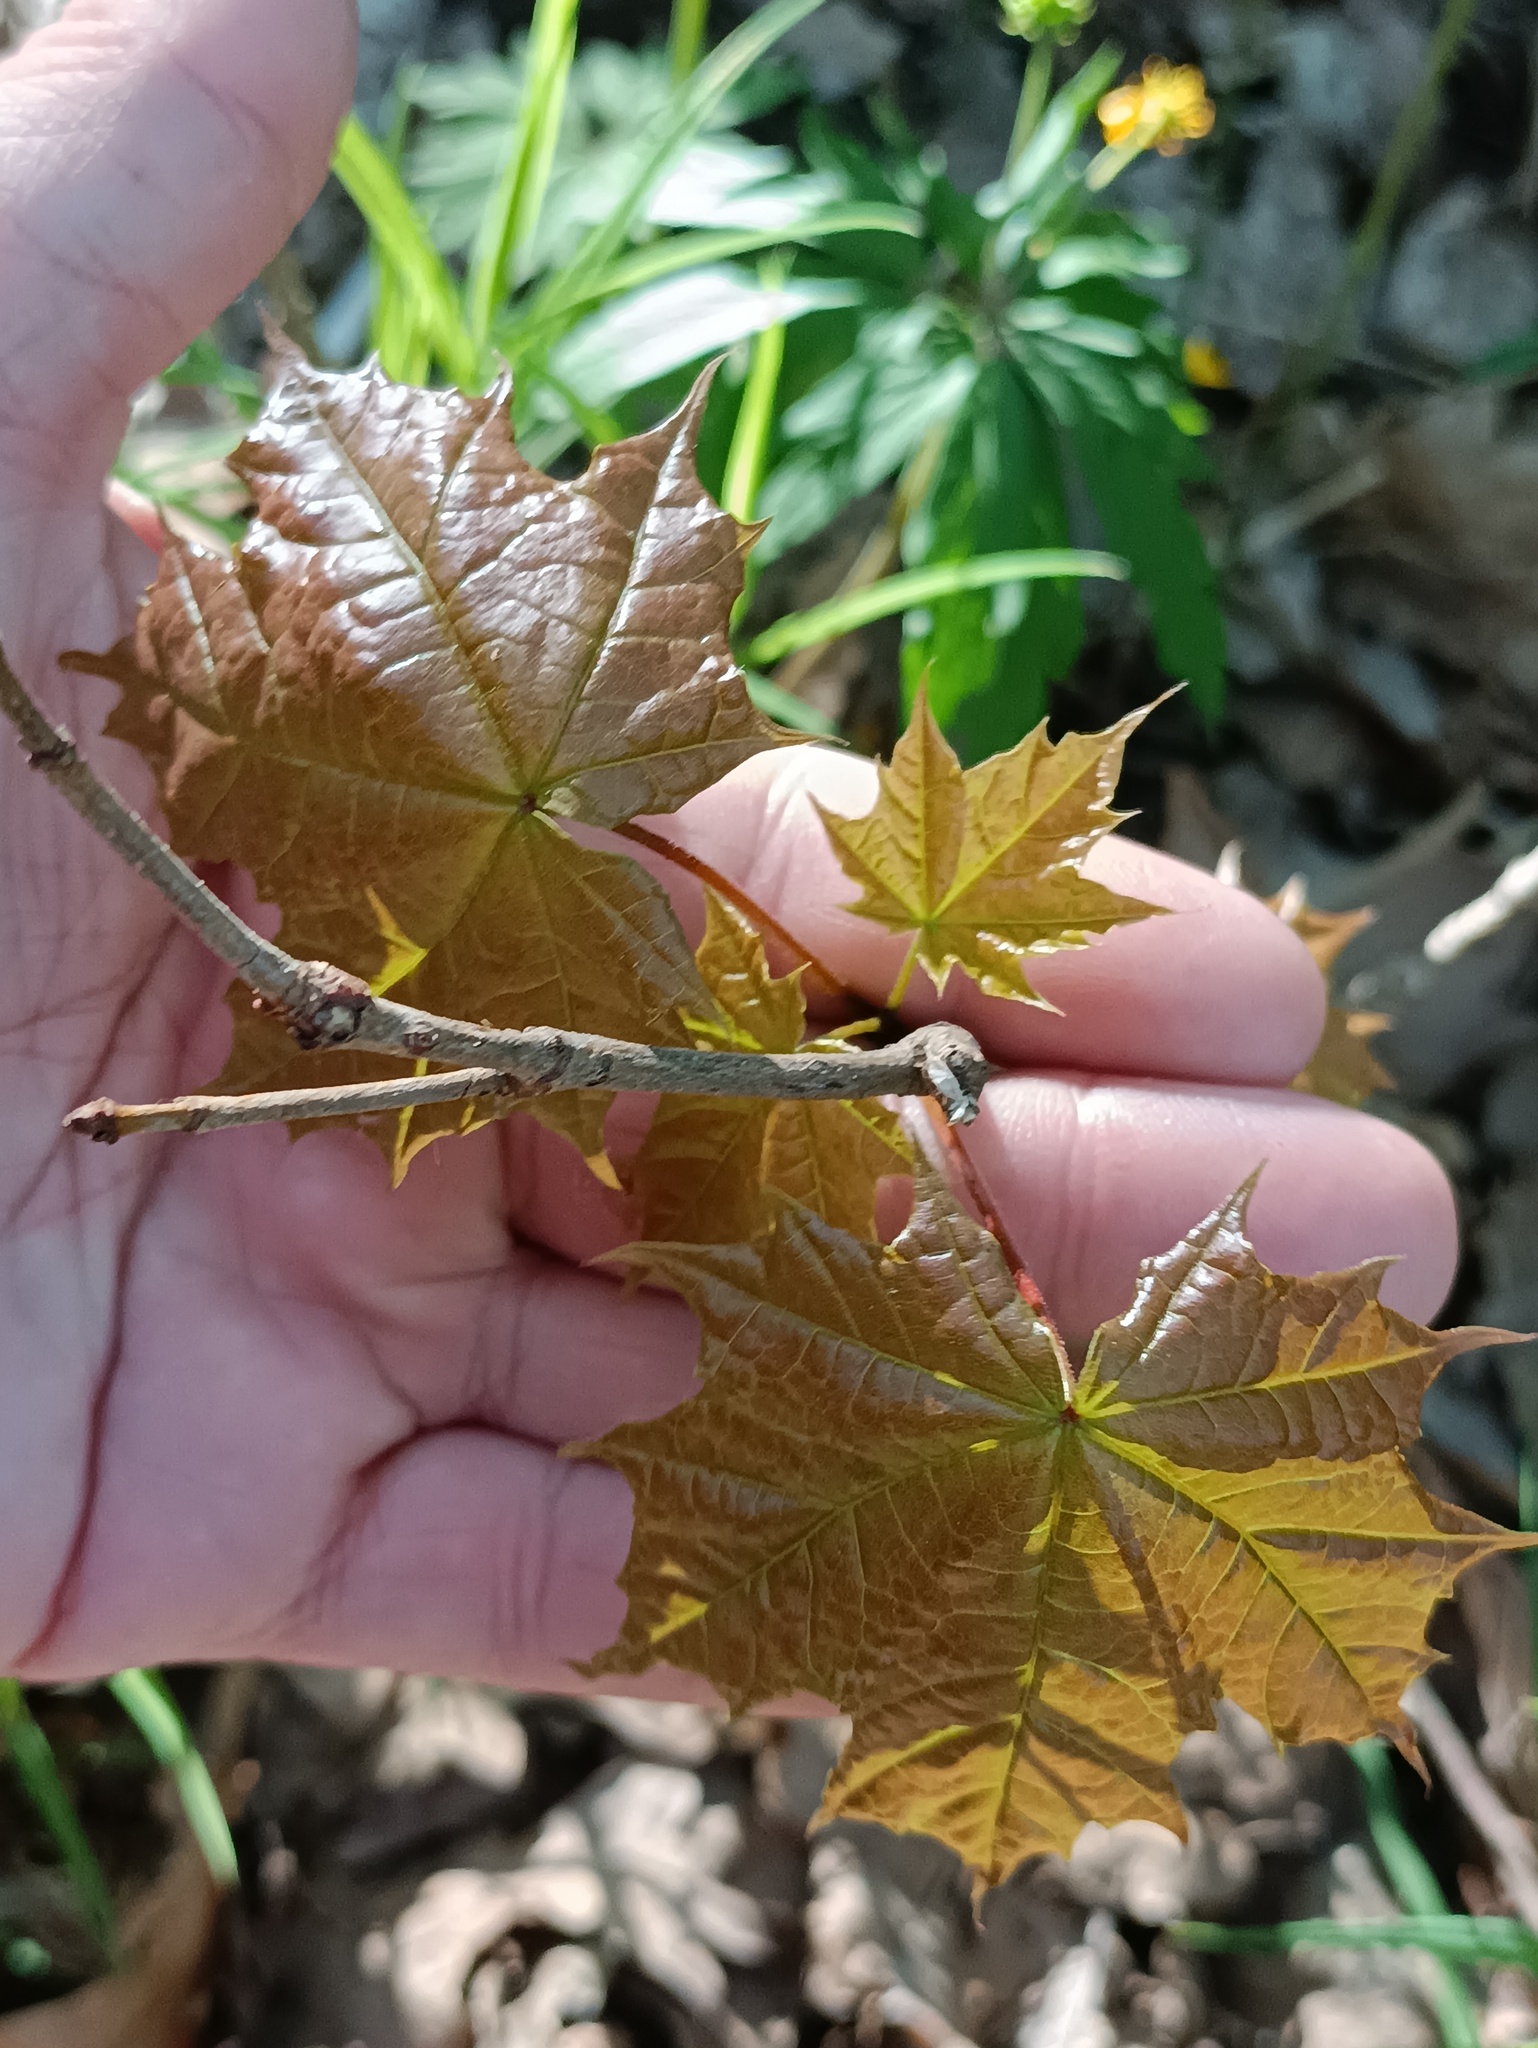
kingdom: Plantae
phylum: Tracheophyta
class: Magnoliopsida
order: Sapindales
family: Sapindaceae
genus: Acer
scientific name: Acer platanoides
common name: Norway maple
